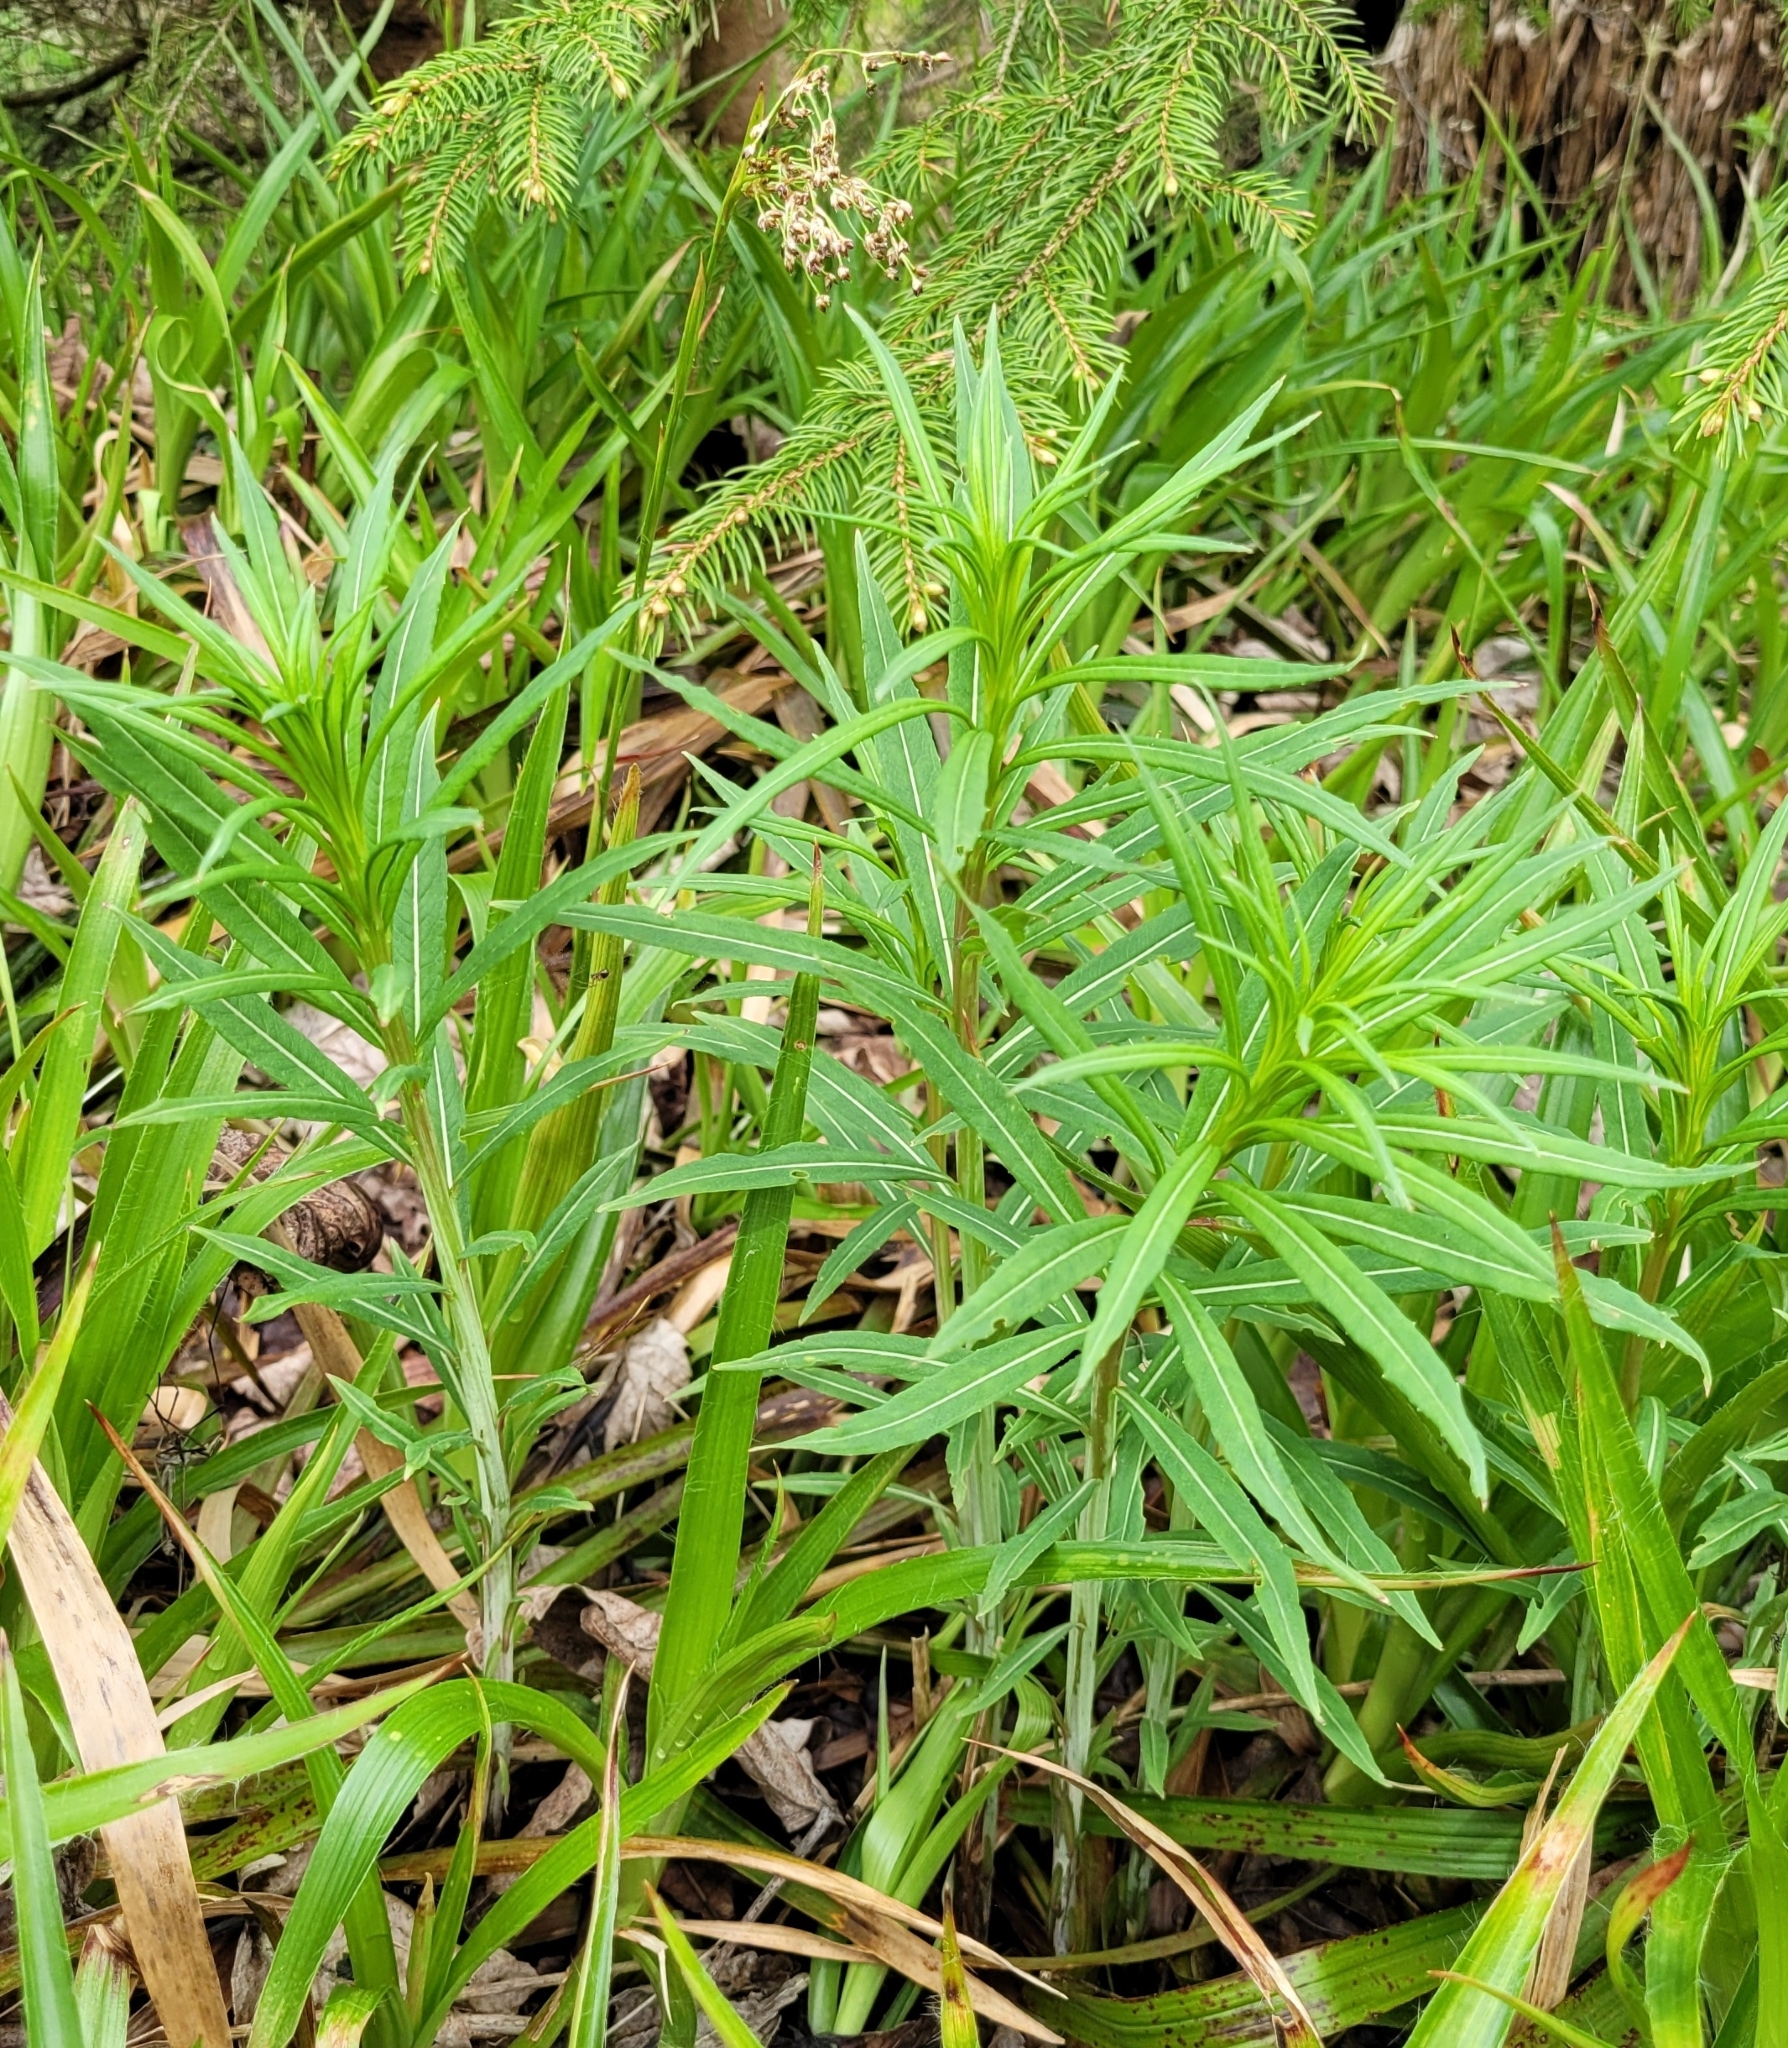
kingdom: Plantae
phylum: Tracheophyta
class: Magnoliopsida
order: Myrtales
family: Onagraceae
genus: Chamaenerion
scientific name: Chamaenerion angustifolium
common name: Fireweed
